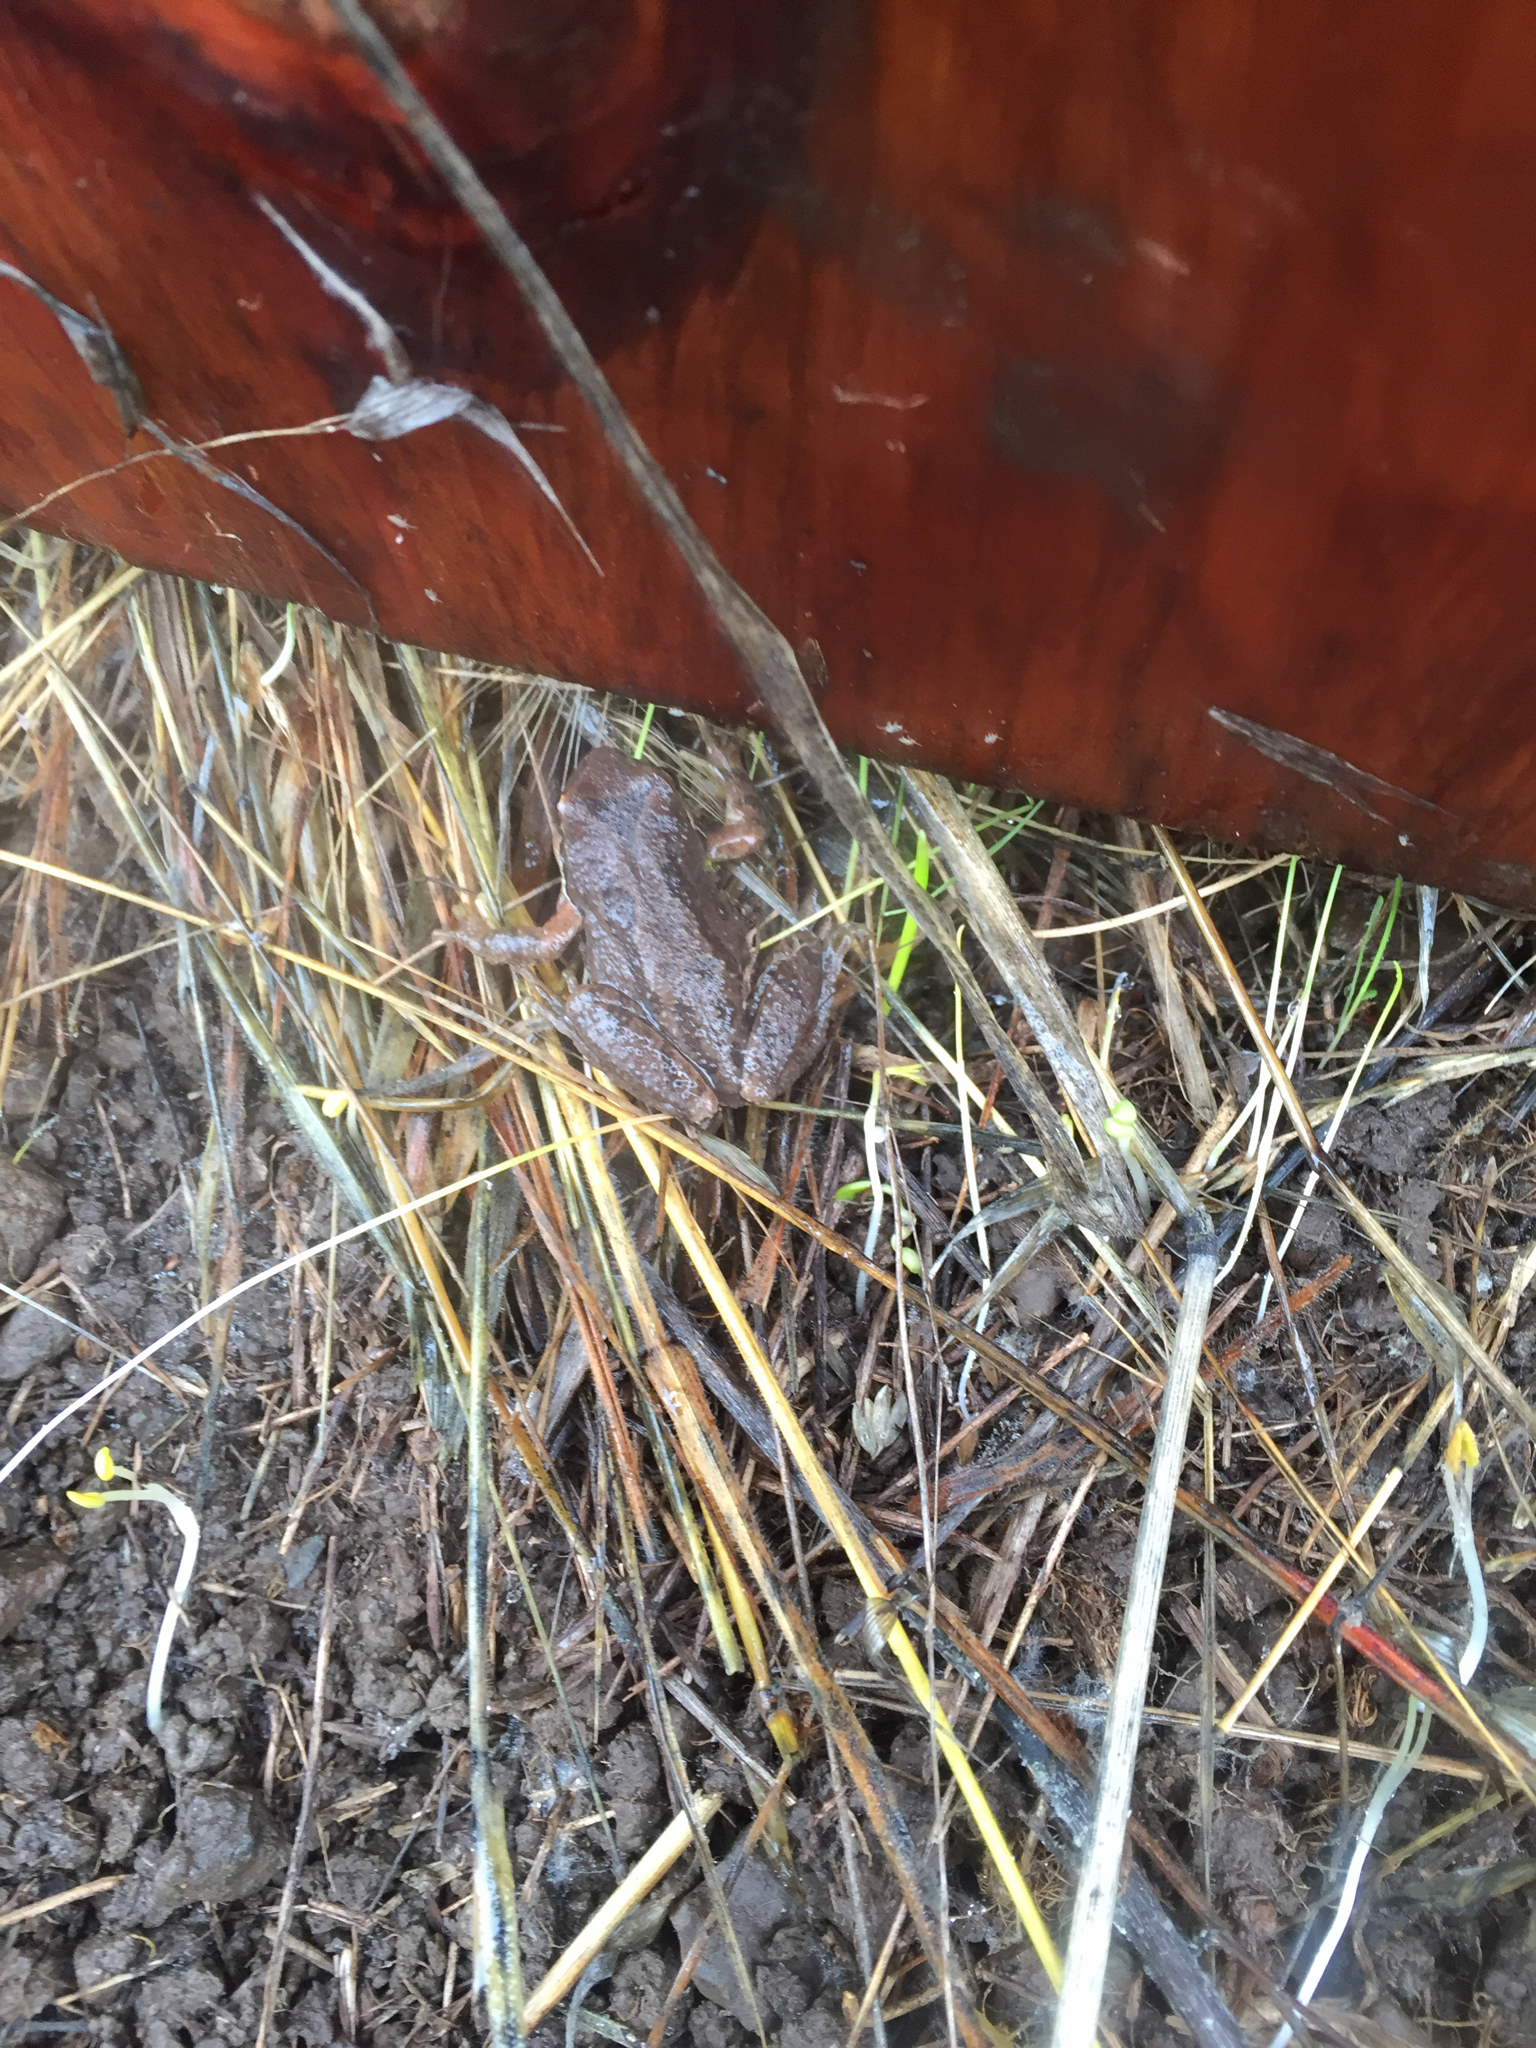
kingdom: Animalia
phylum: Chordata
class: Amphibia
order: Anura
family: Hylidae
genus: Pseudacris
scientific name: Pseudacris regilla
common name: Pacific chorus frog
